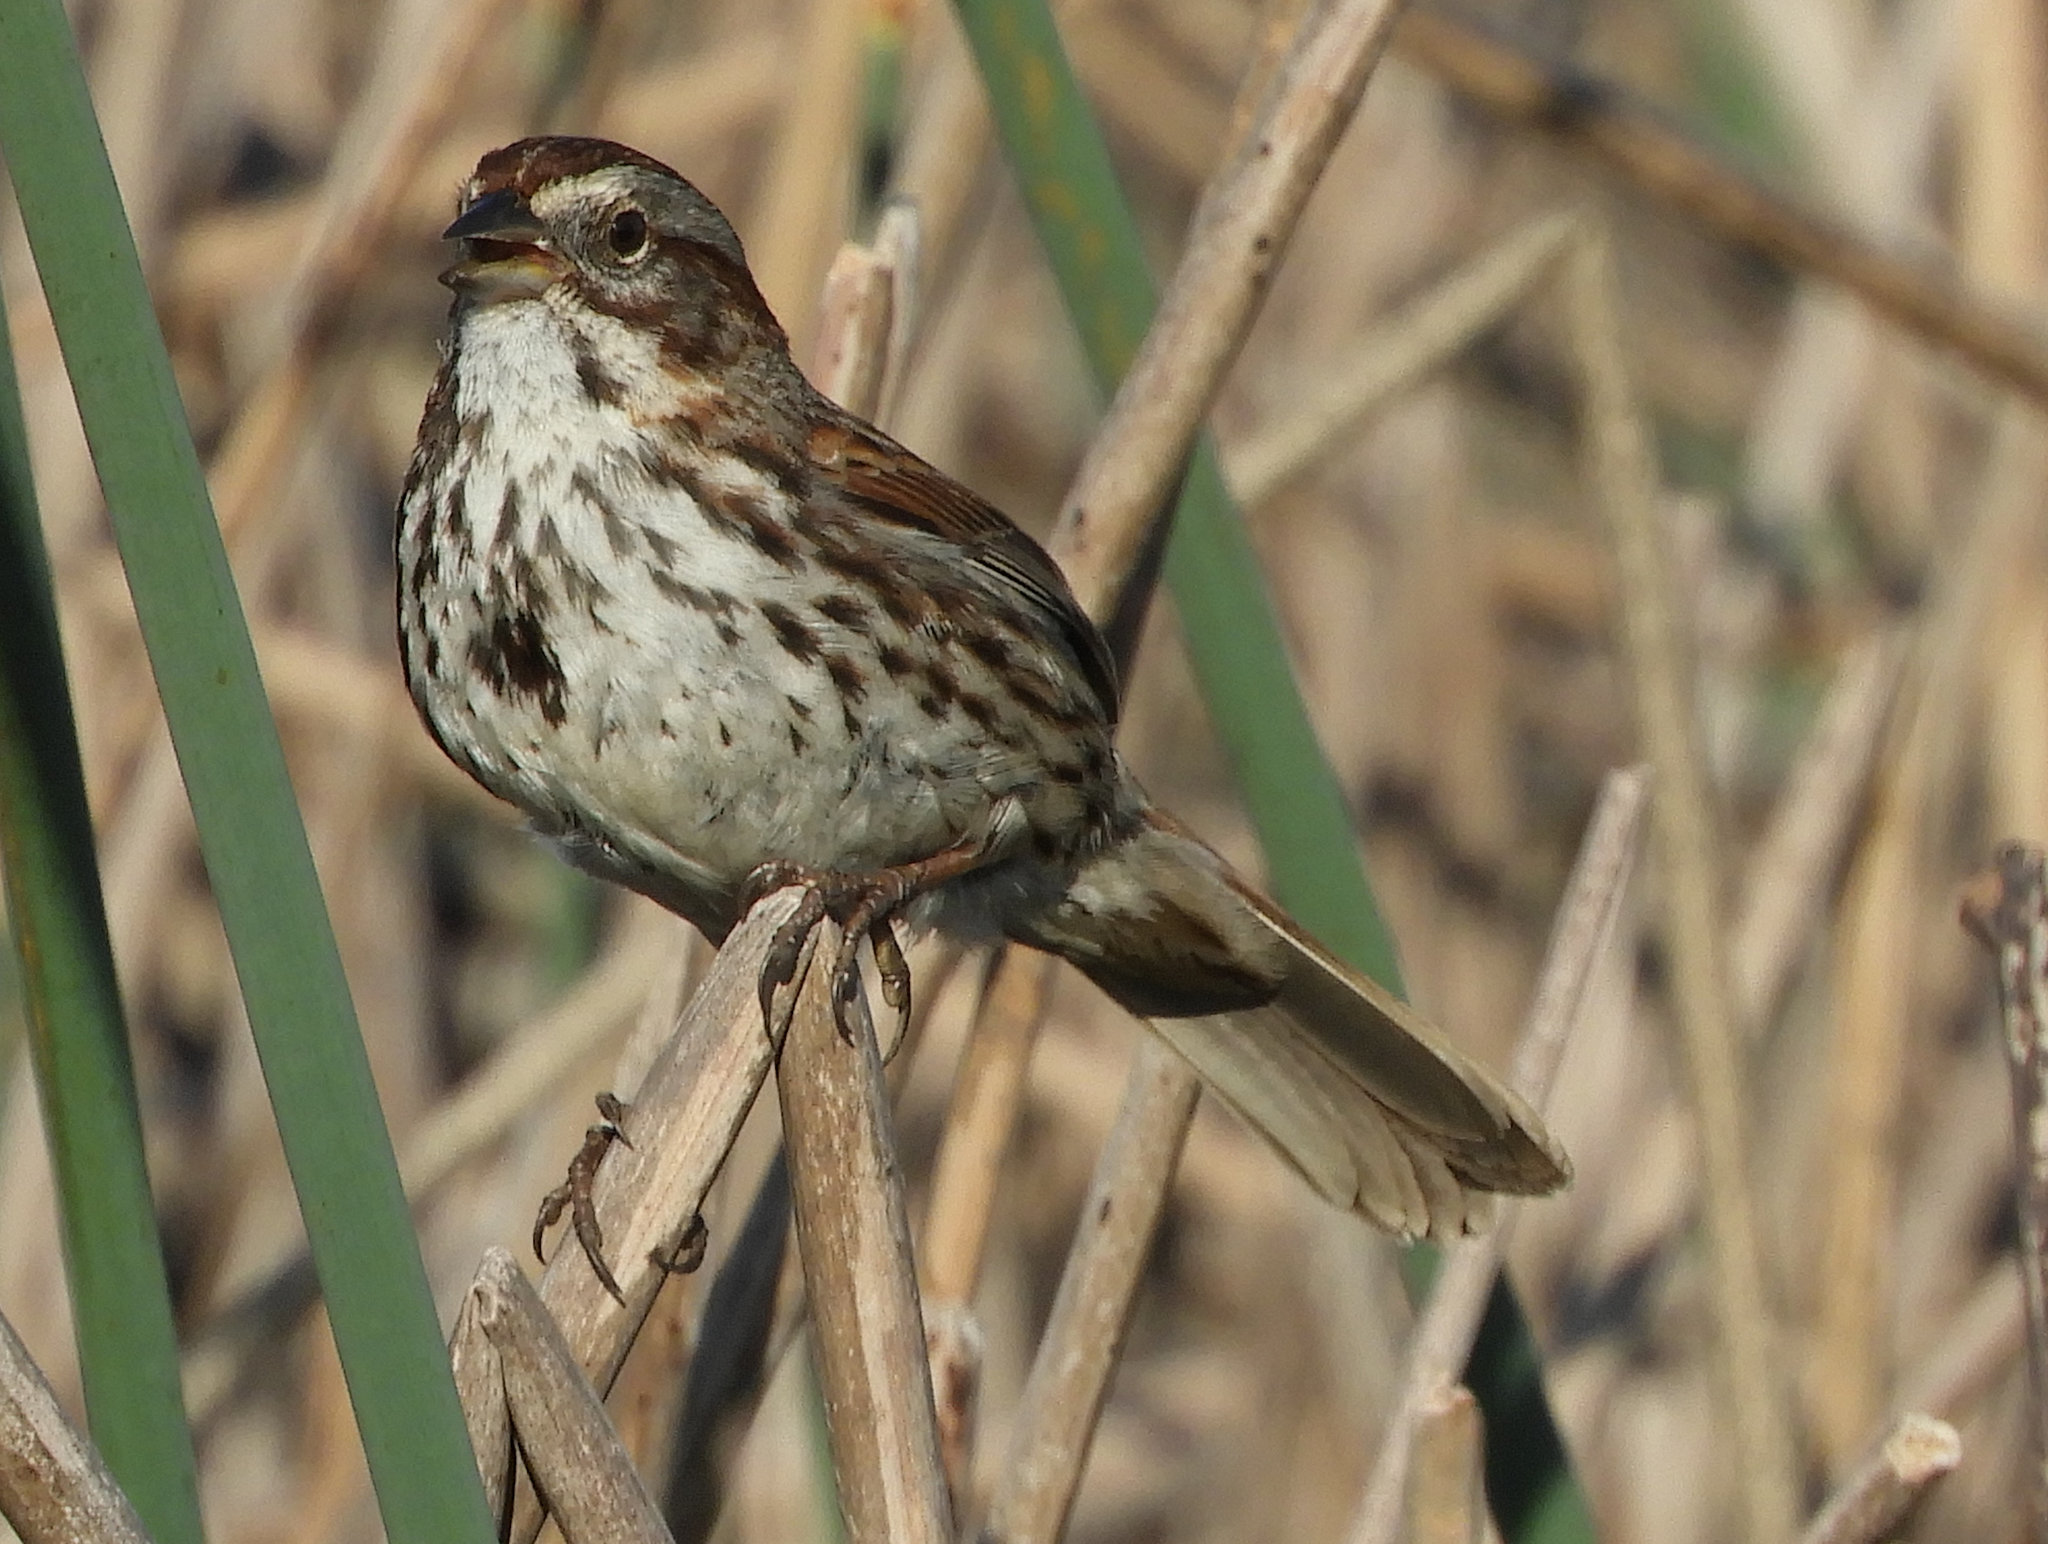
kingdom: Animalia
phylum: Chordata
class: Aves
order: Passeriformes
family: Passerellidae
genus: Melospiza
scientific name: Melospiza melodia
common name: Song sparrow
